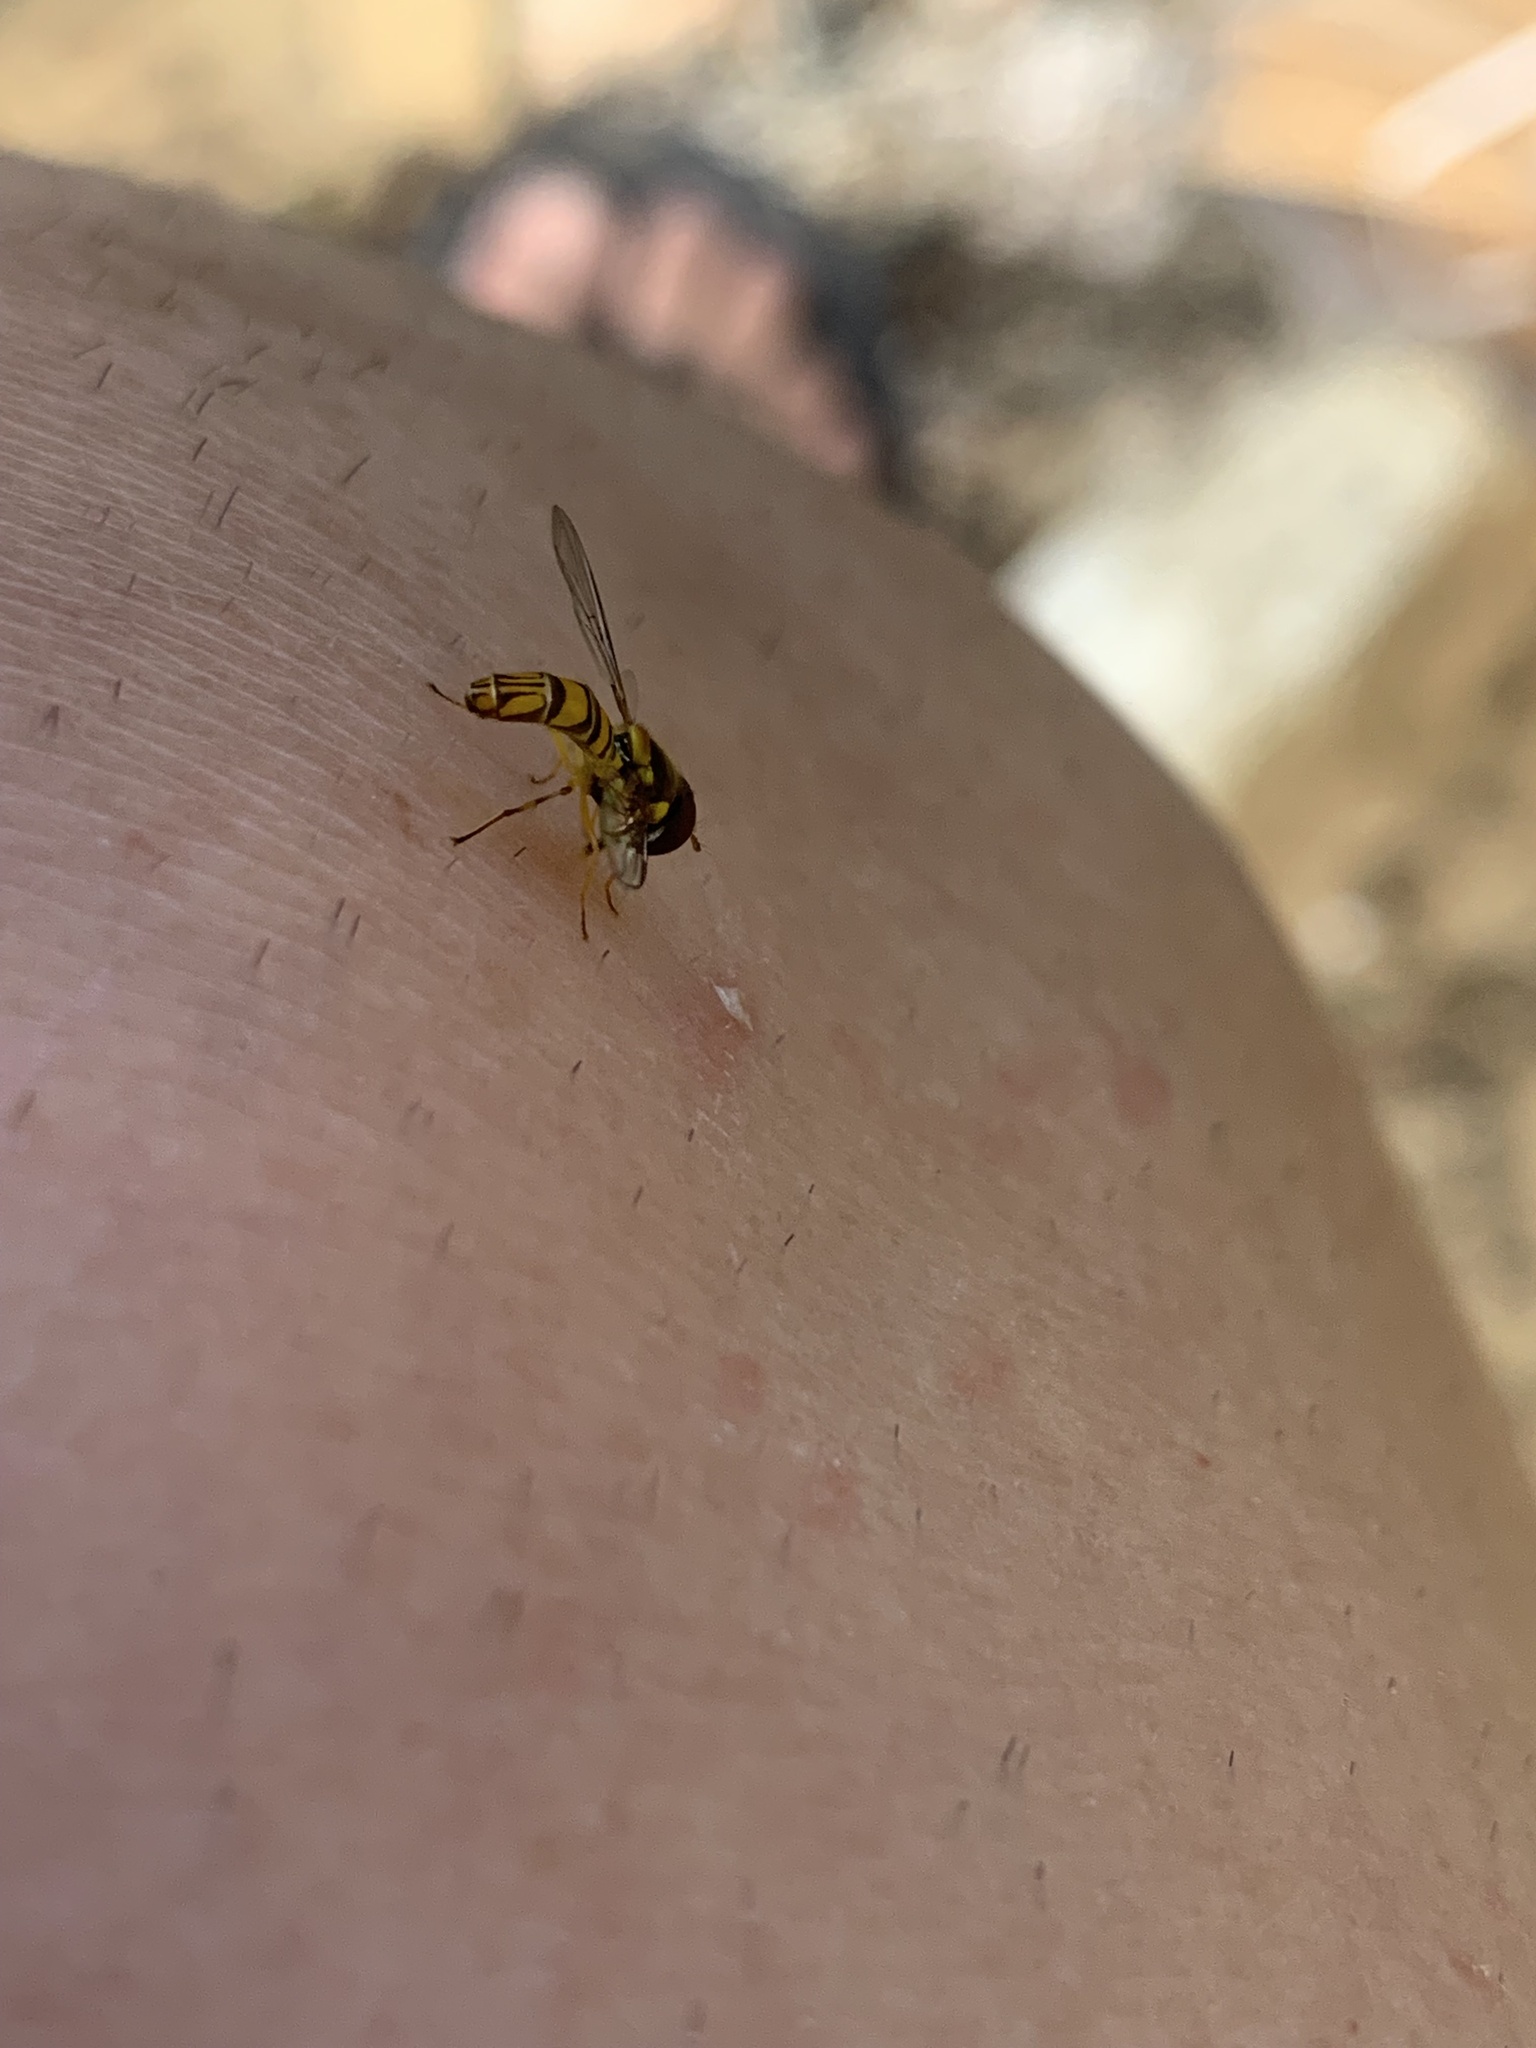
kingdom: Animalia
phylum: Arthropoda
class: Insecta
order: Diptera
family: Syrphidae
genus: Allograpta
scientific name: Allograpta obliqua
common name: Common oblique syrphid
